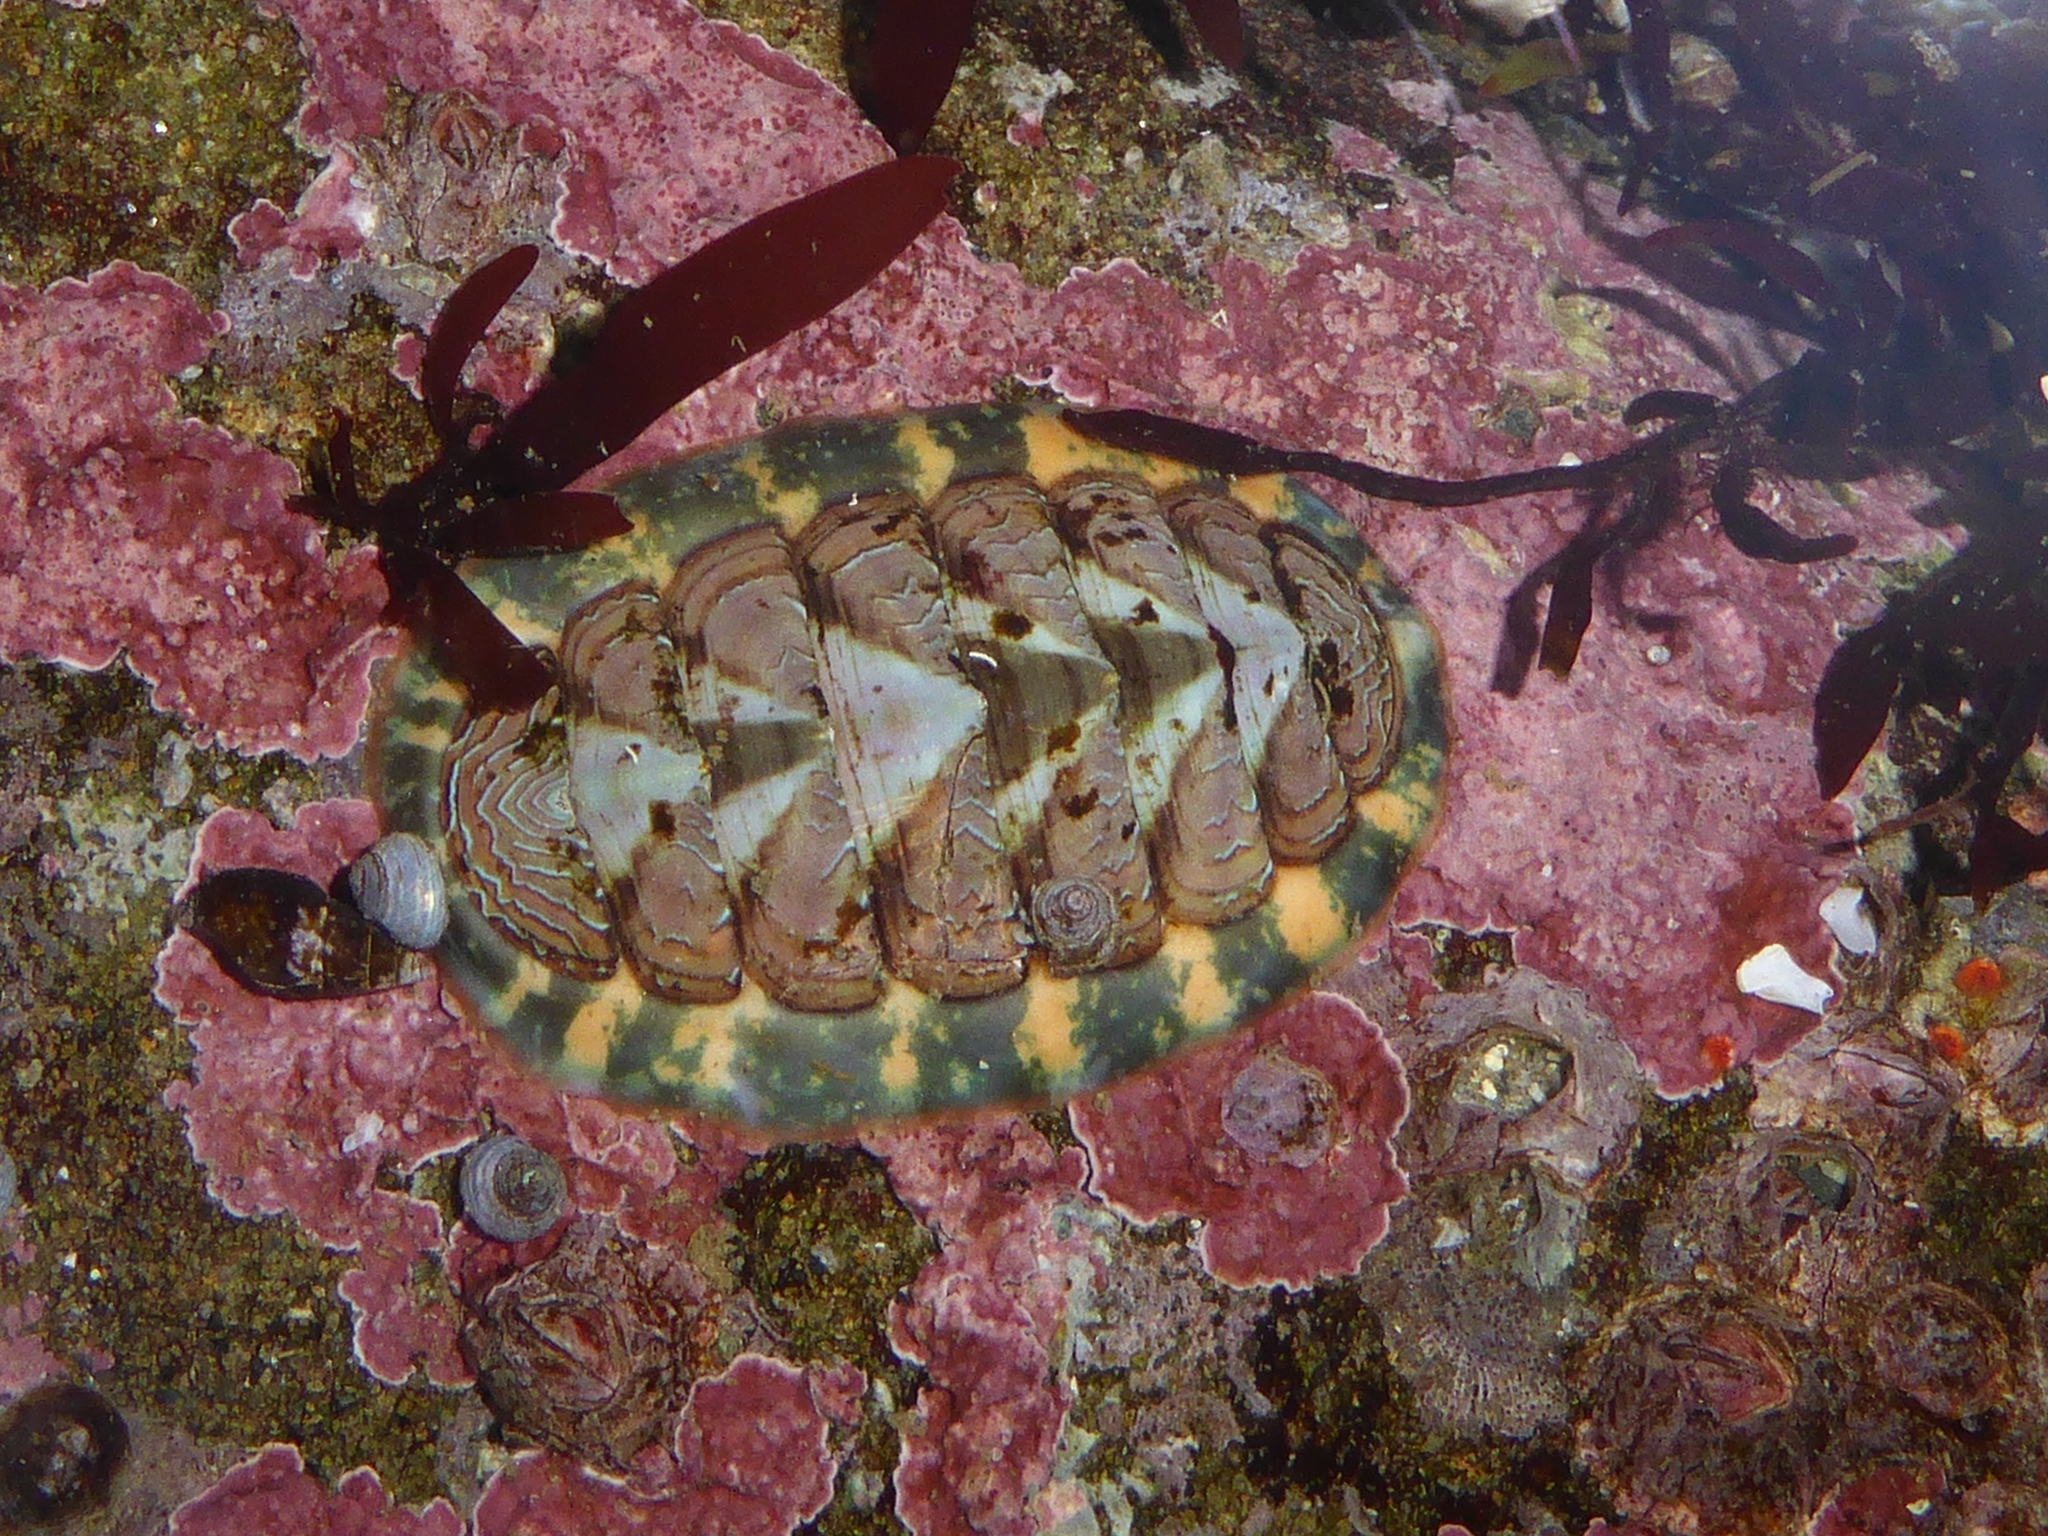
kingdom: Animalia
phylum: Mollusca
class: Polyplacophora
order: Chitonida
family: Tonicellidae
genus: Tonicella
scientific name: Tonicella lineata
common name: Lined chiton
